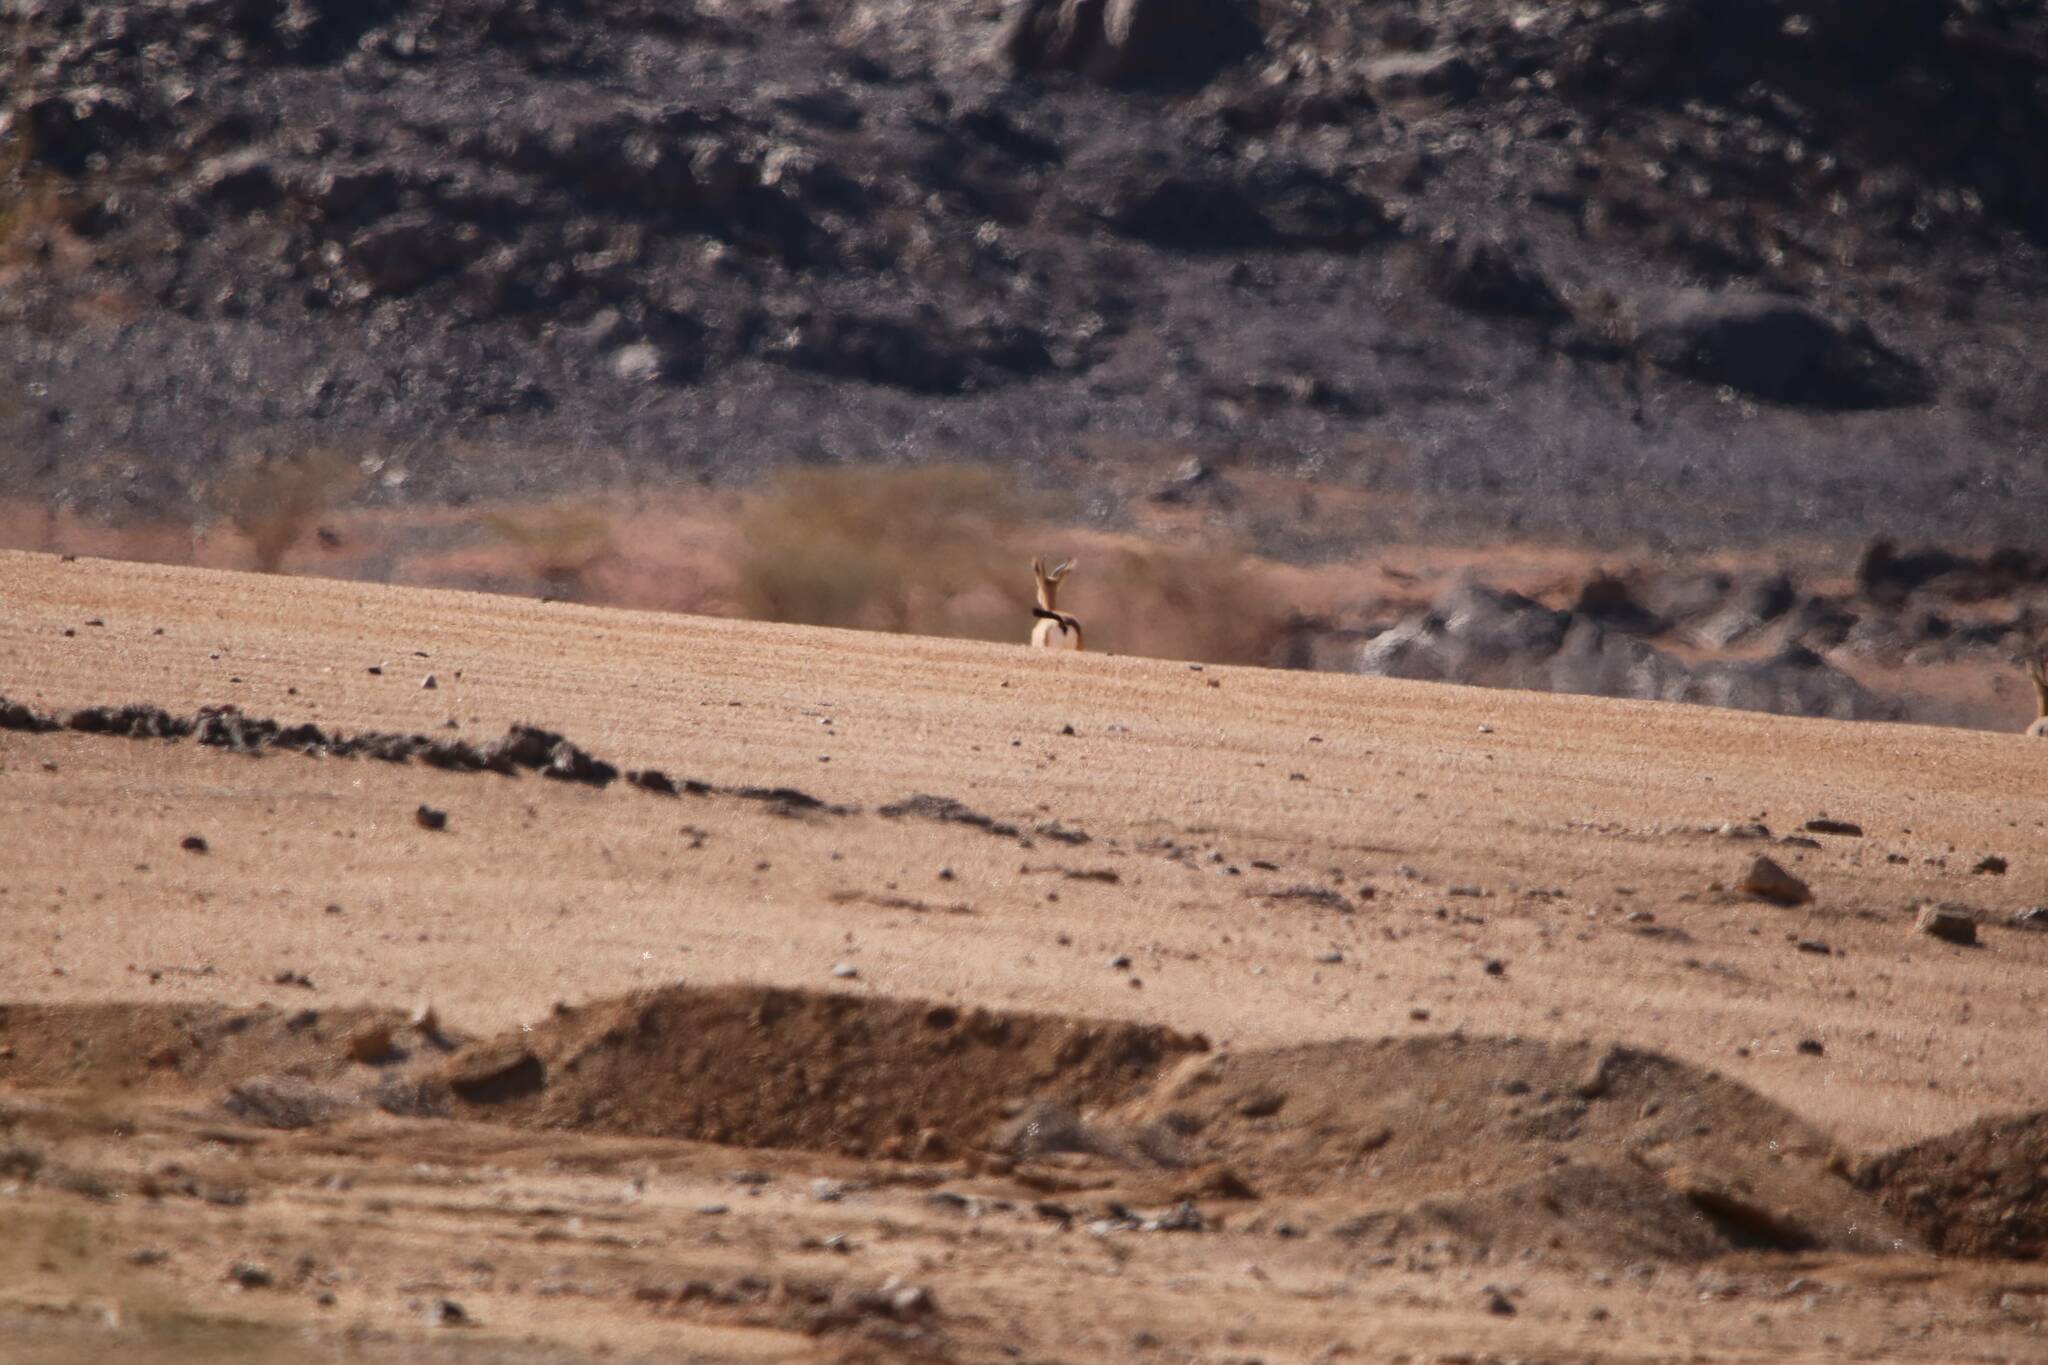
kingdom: Animalia
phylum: Chordata
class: Mammalia
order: Artiodactyla
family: Bovidae
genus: Gazella
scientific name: Gazella dorcas
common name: Dorcas gazelle
